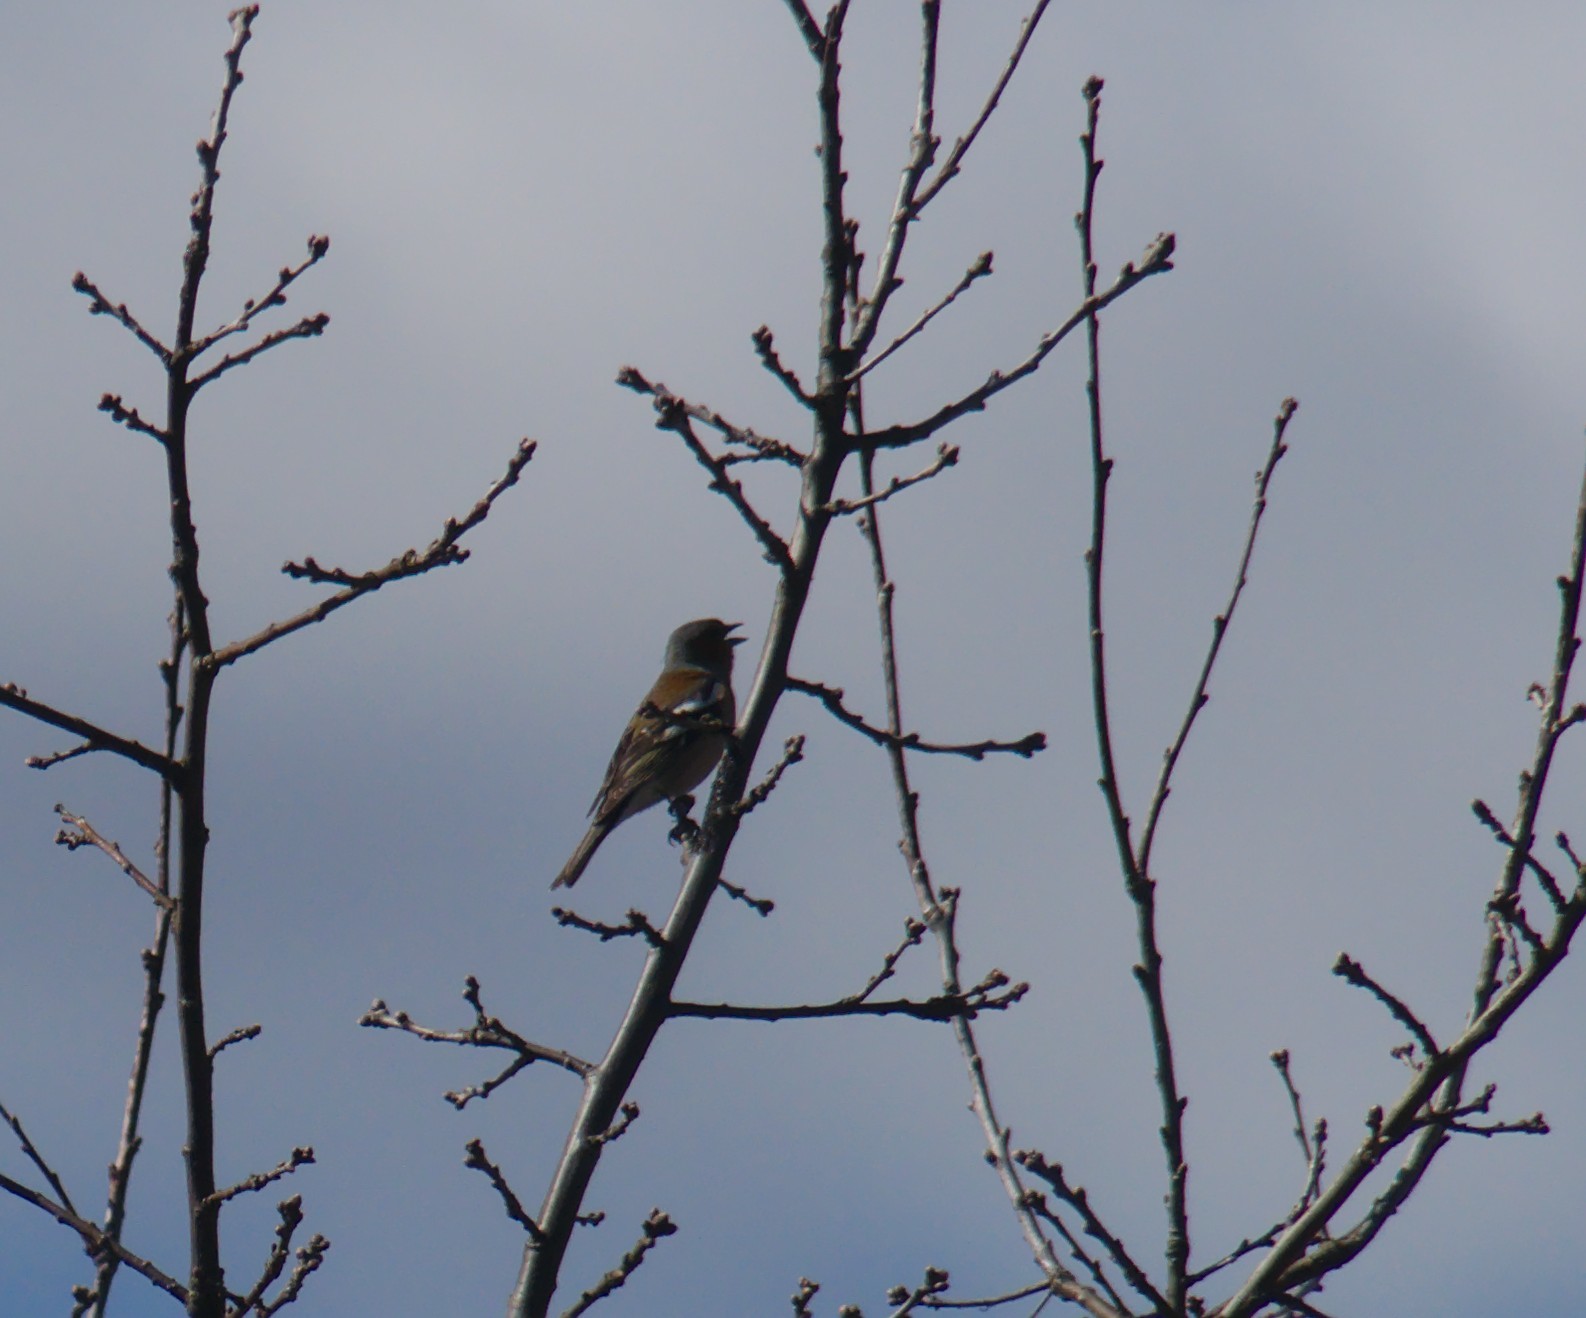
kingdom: Animalia
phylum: Chordata
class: Aves
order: Passeriformes
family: Fringillidae
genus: Fringilla
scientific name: Fringilla coelebs
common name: Common chaffinch
